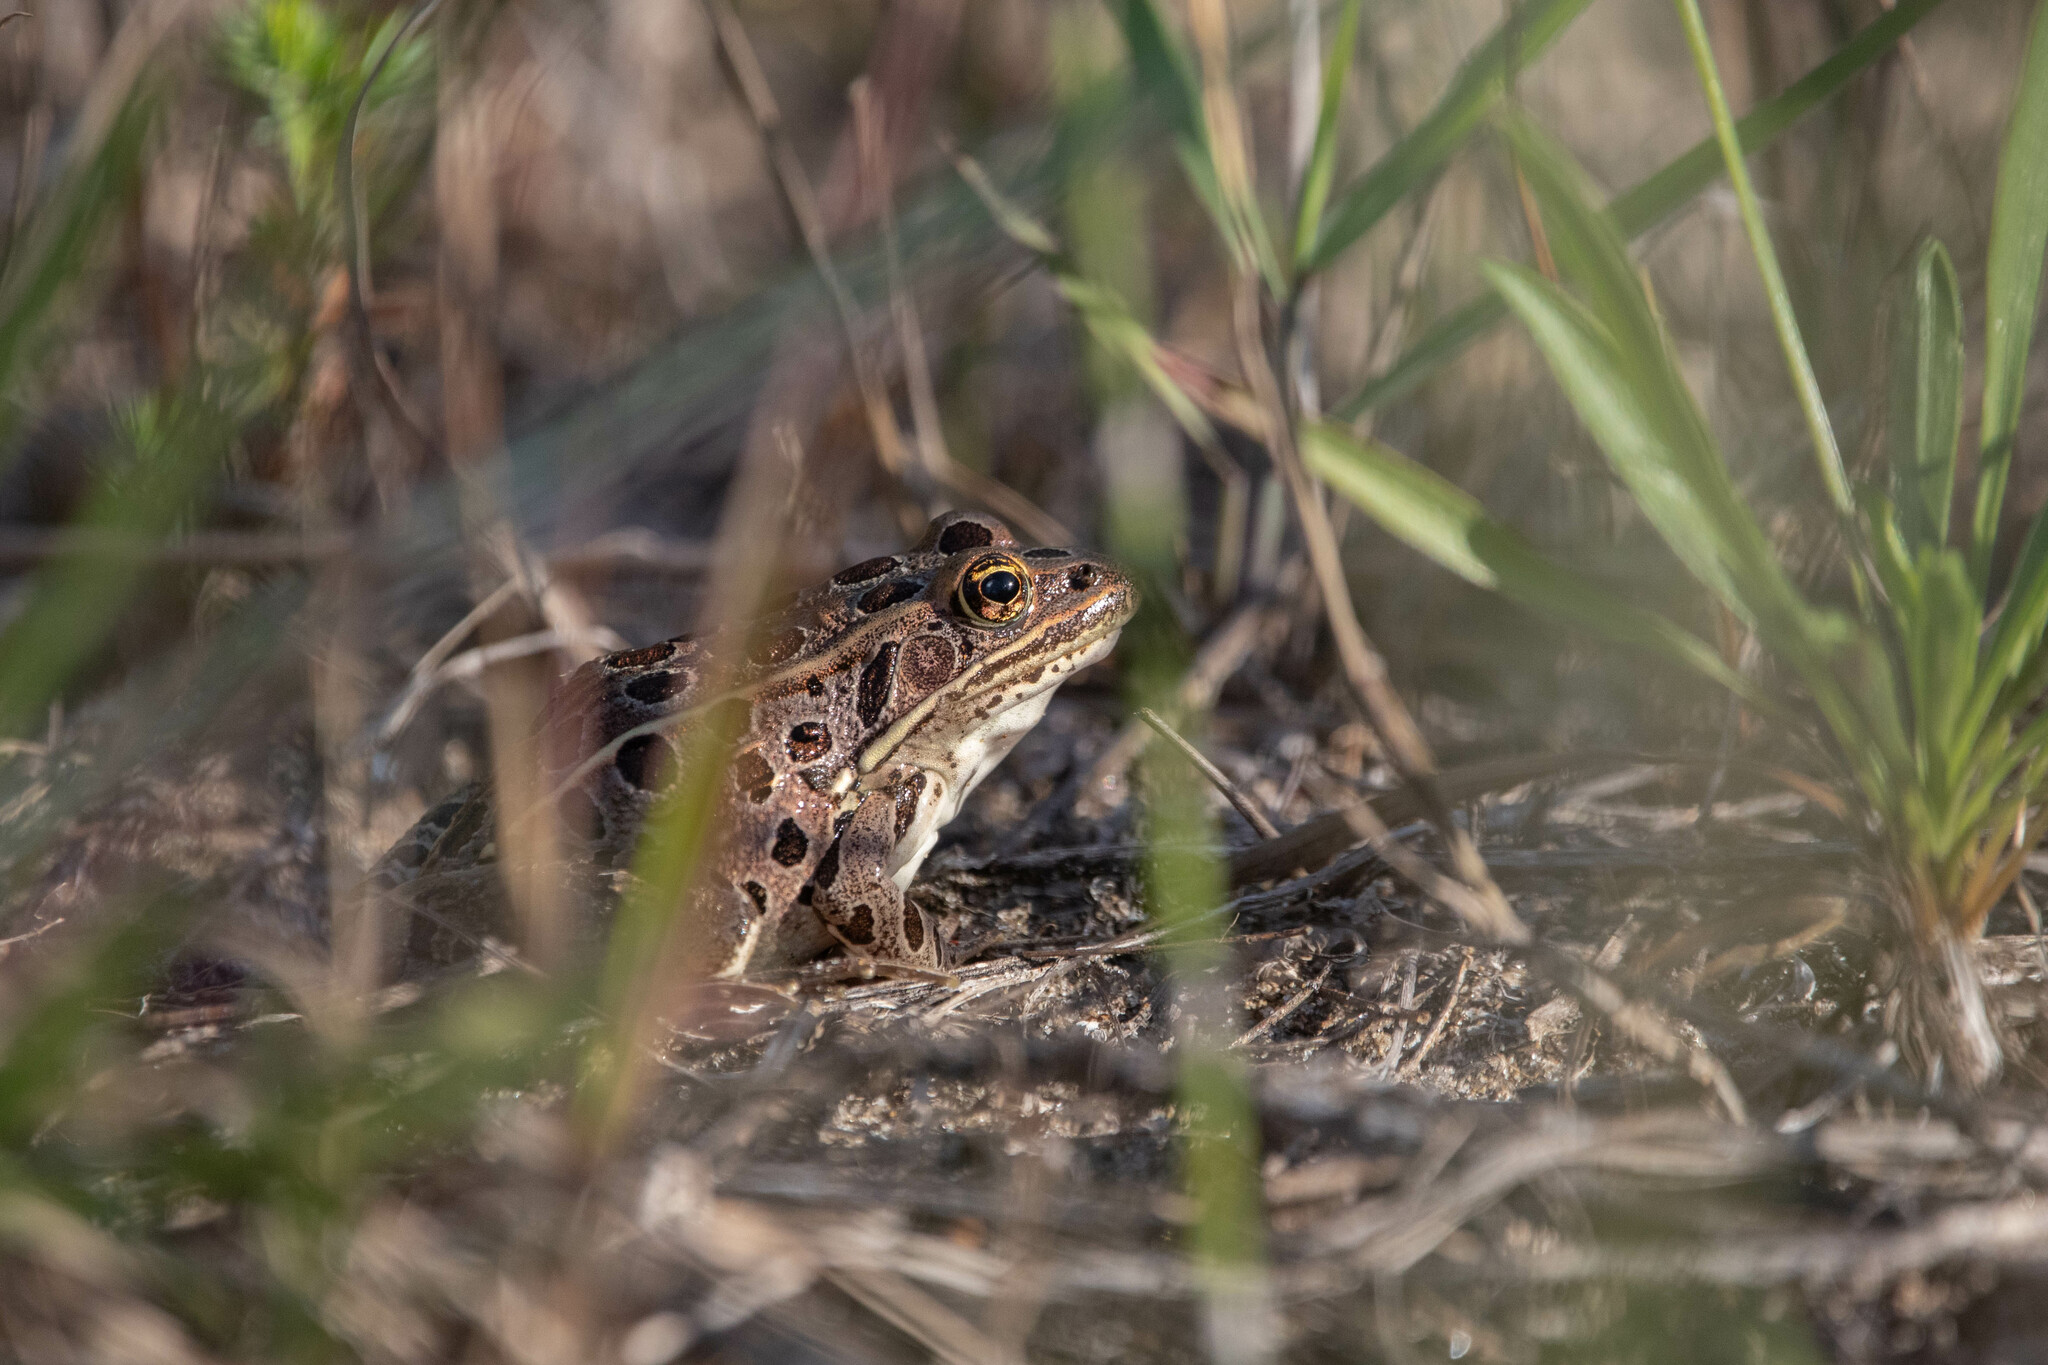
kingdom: Animalia
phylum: Chordata
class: Amphibia
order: Anura
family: Ranidae
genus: Lithobates
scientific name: Lithobates pipiens
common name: Northern leopard frog
